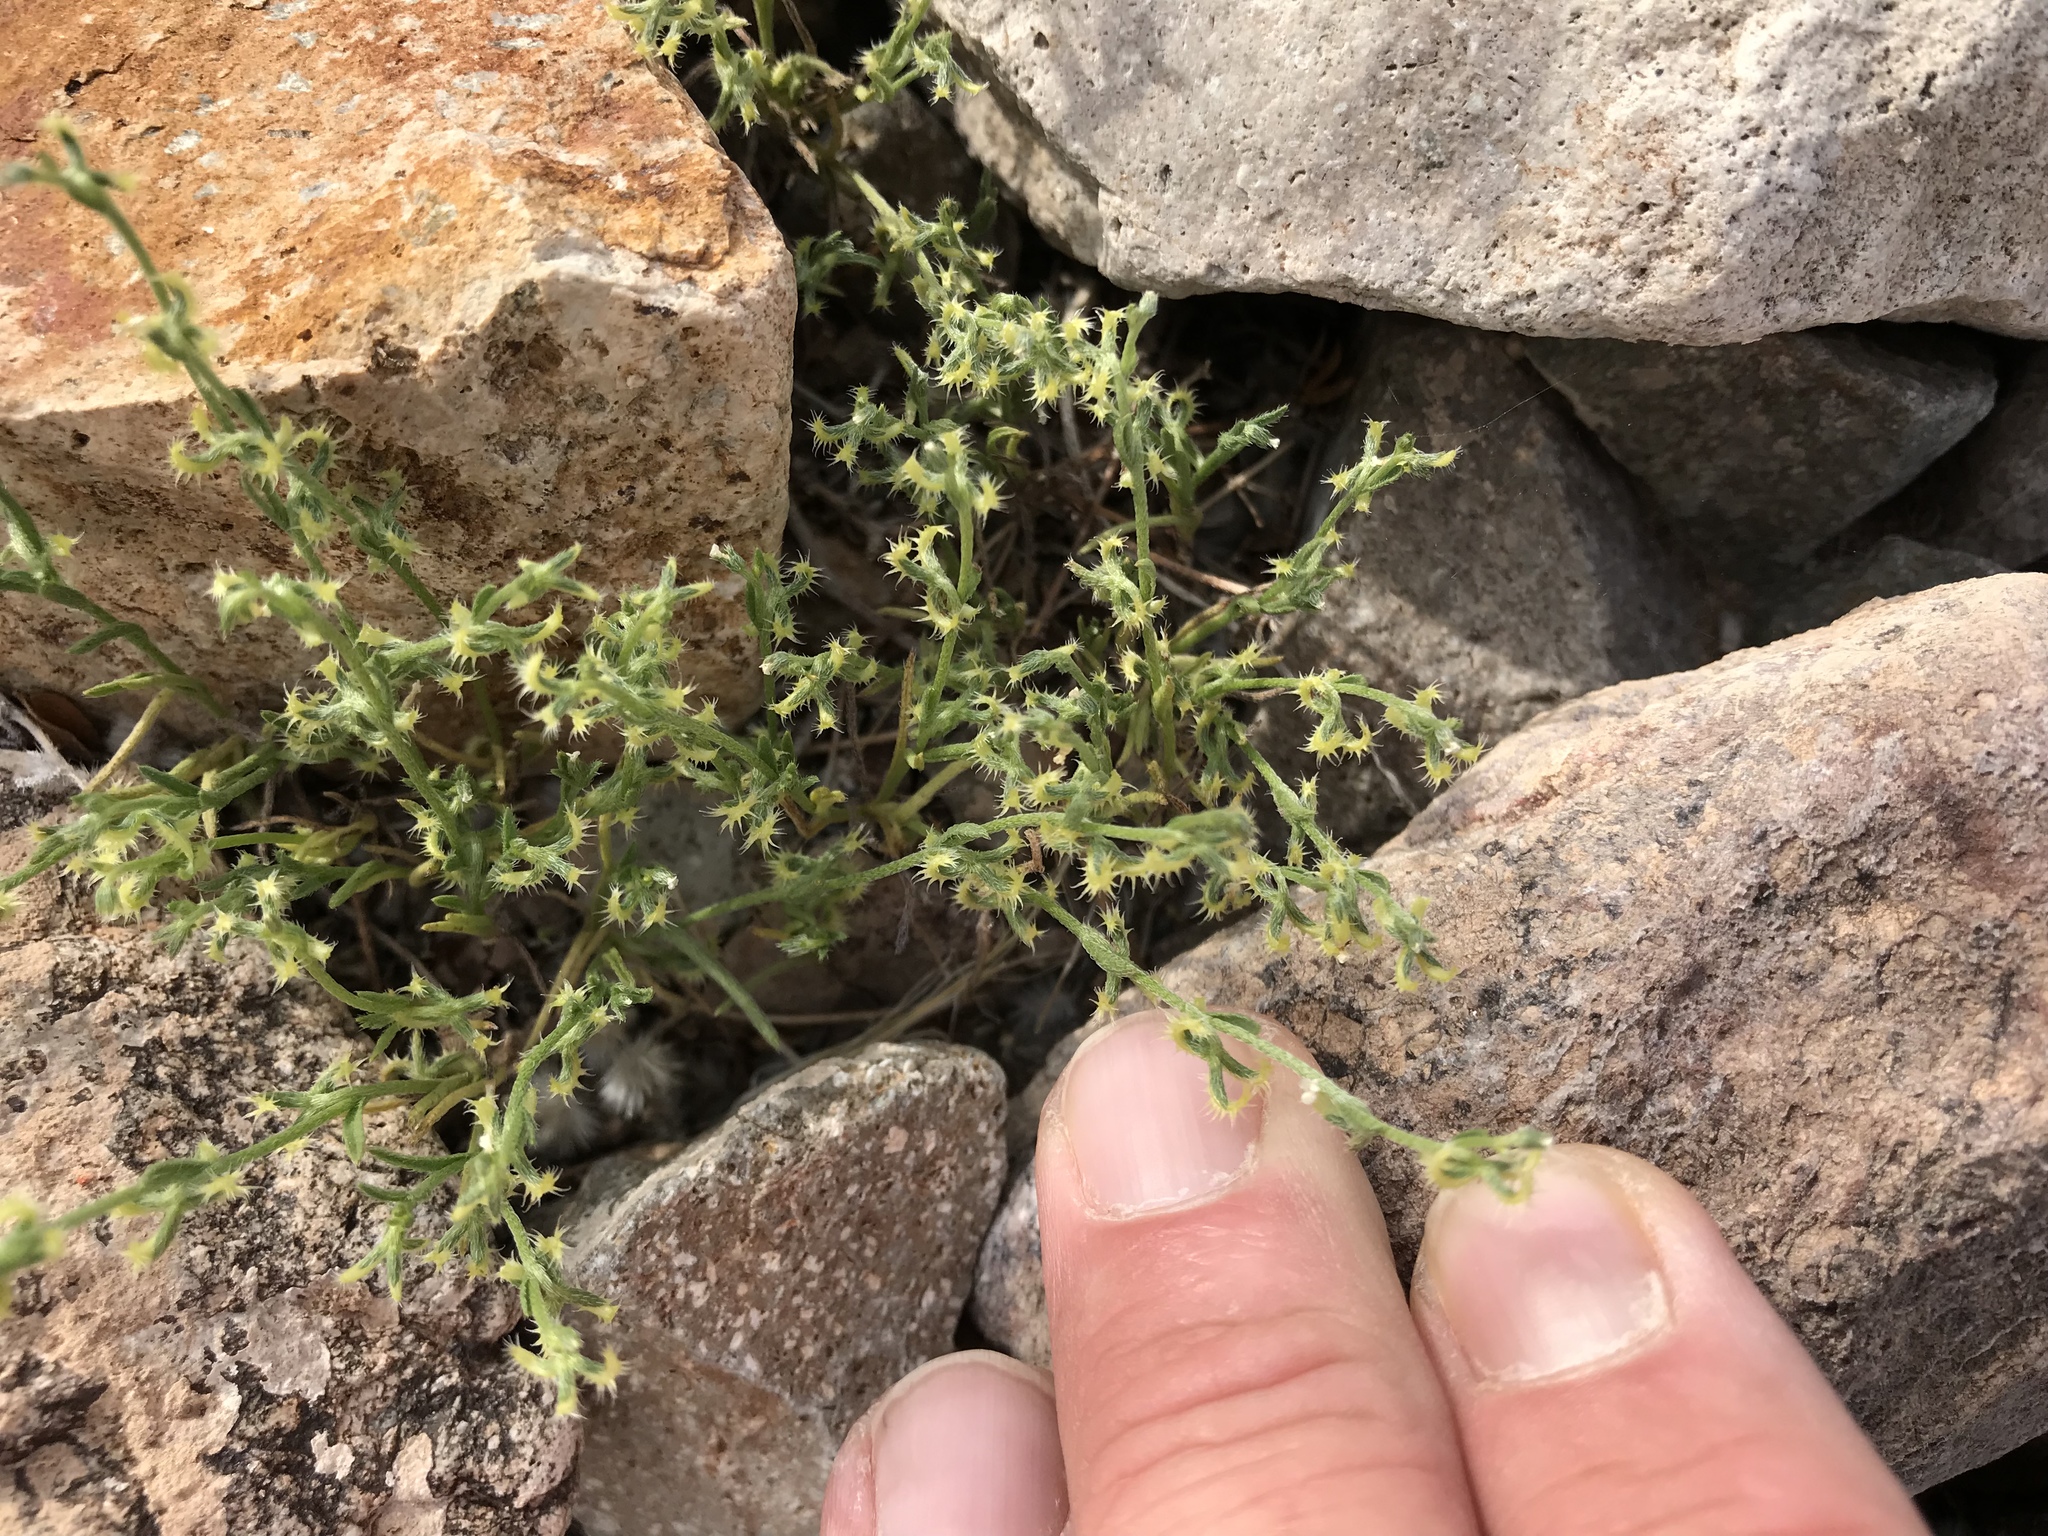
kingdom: Plantae
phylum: Tracheophyta
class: Magnoliopsida
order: Boraginales
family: Boraginaceae
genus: Pectocarya
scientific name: Pectocarya recurvata
